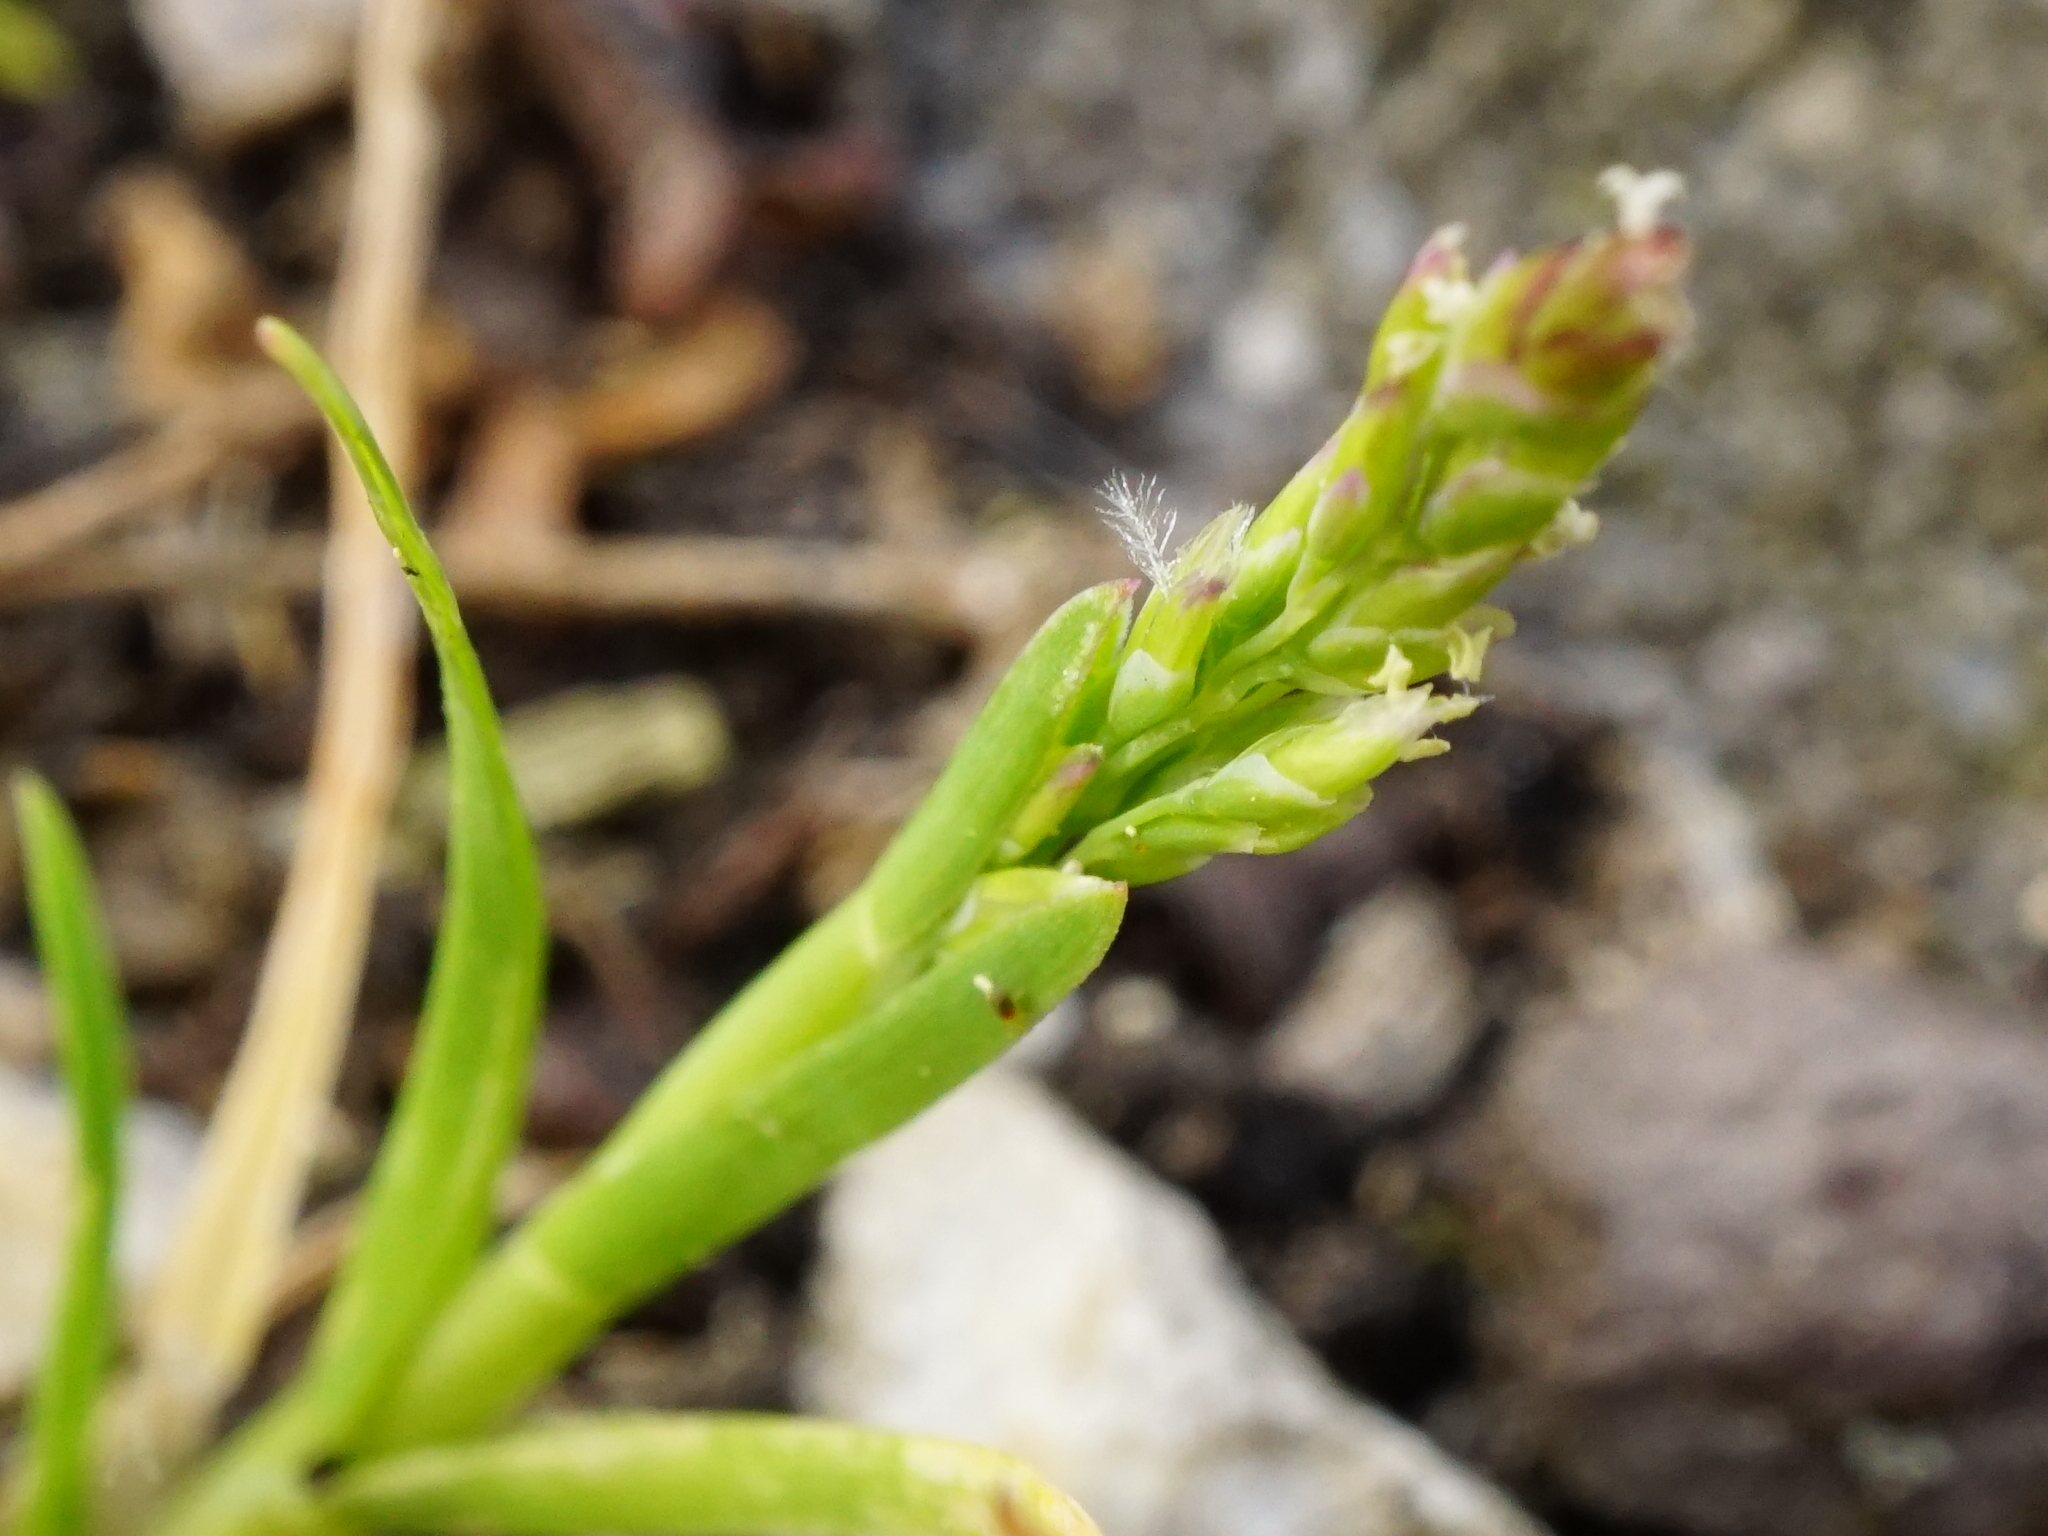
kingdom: Plantae
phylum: Tracheophyta
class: Liliopsida
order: Poales
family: Poaceae
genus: Poa
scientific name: Poa annua
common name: Annual bluegrass
